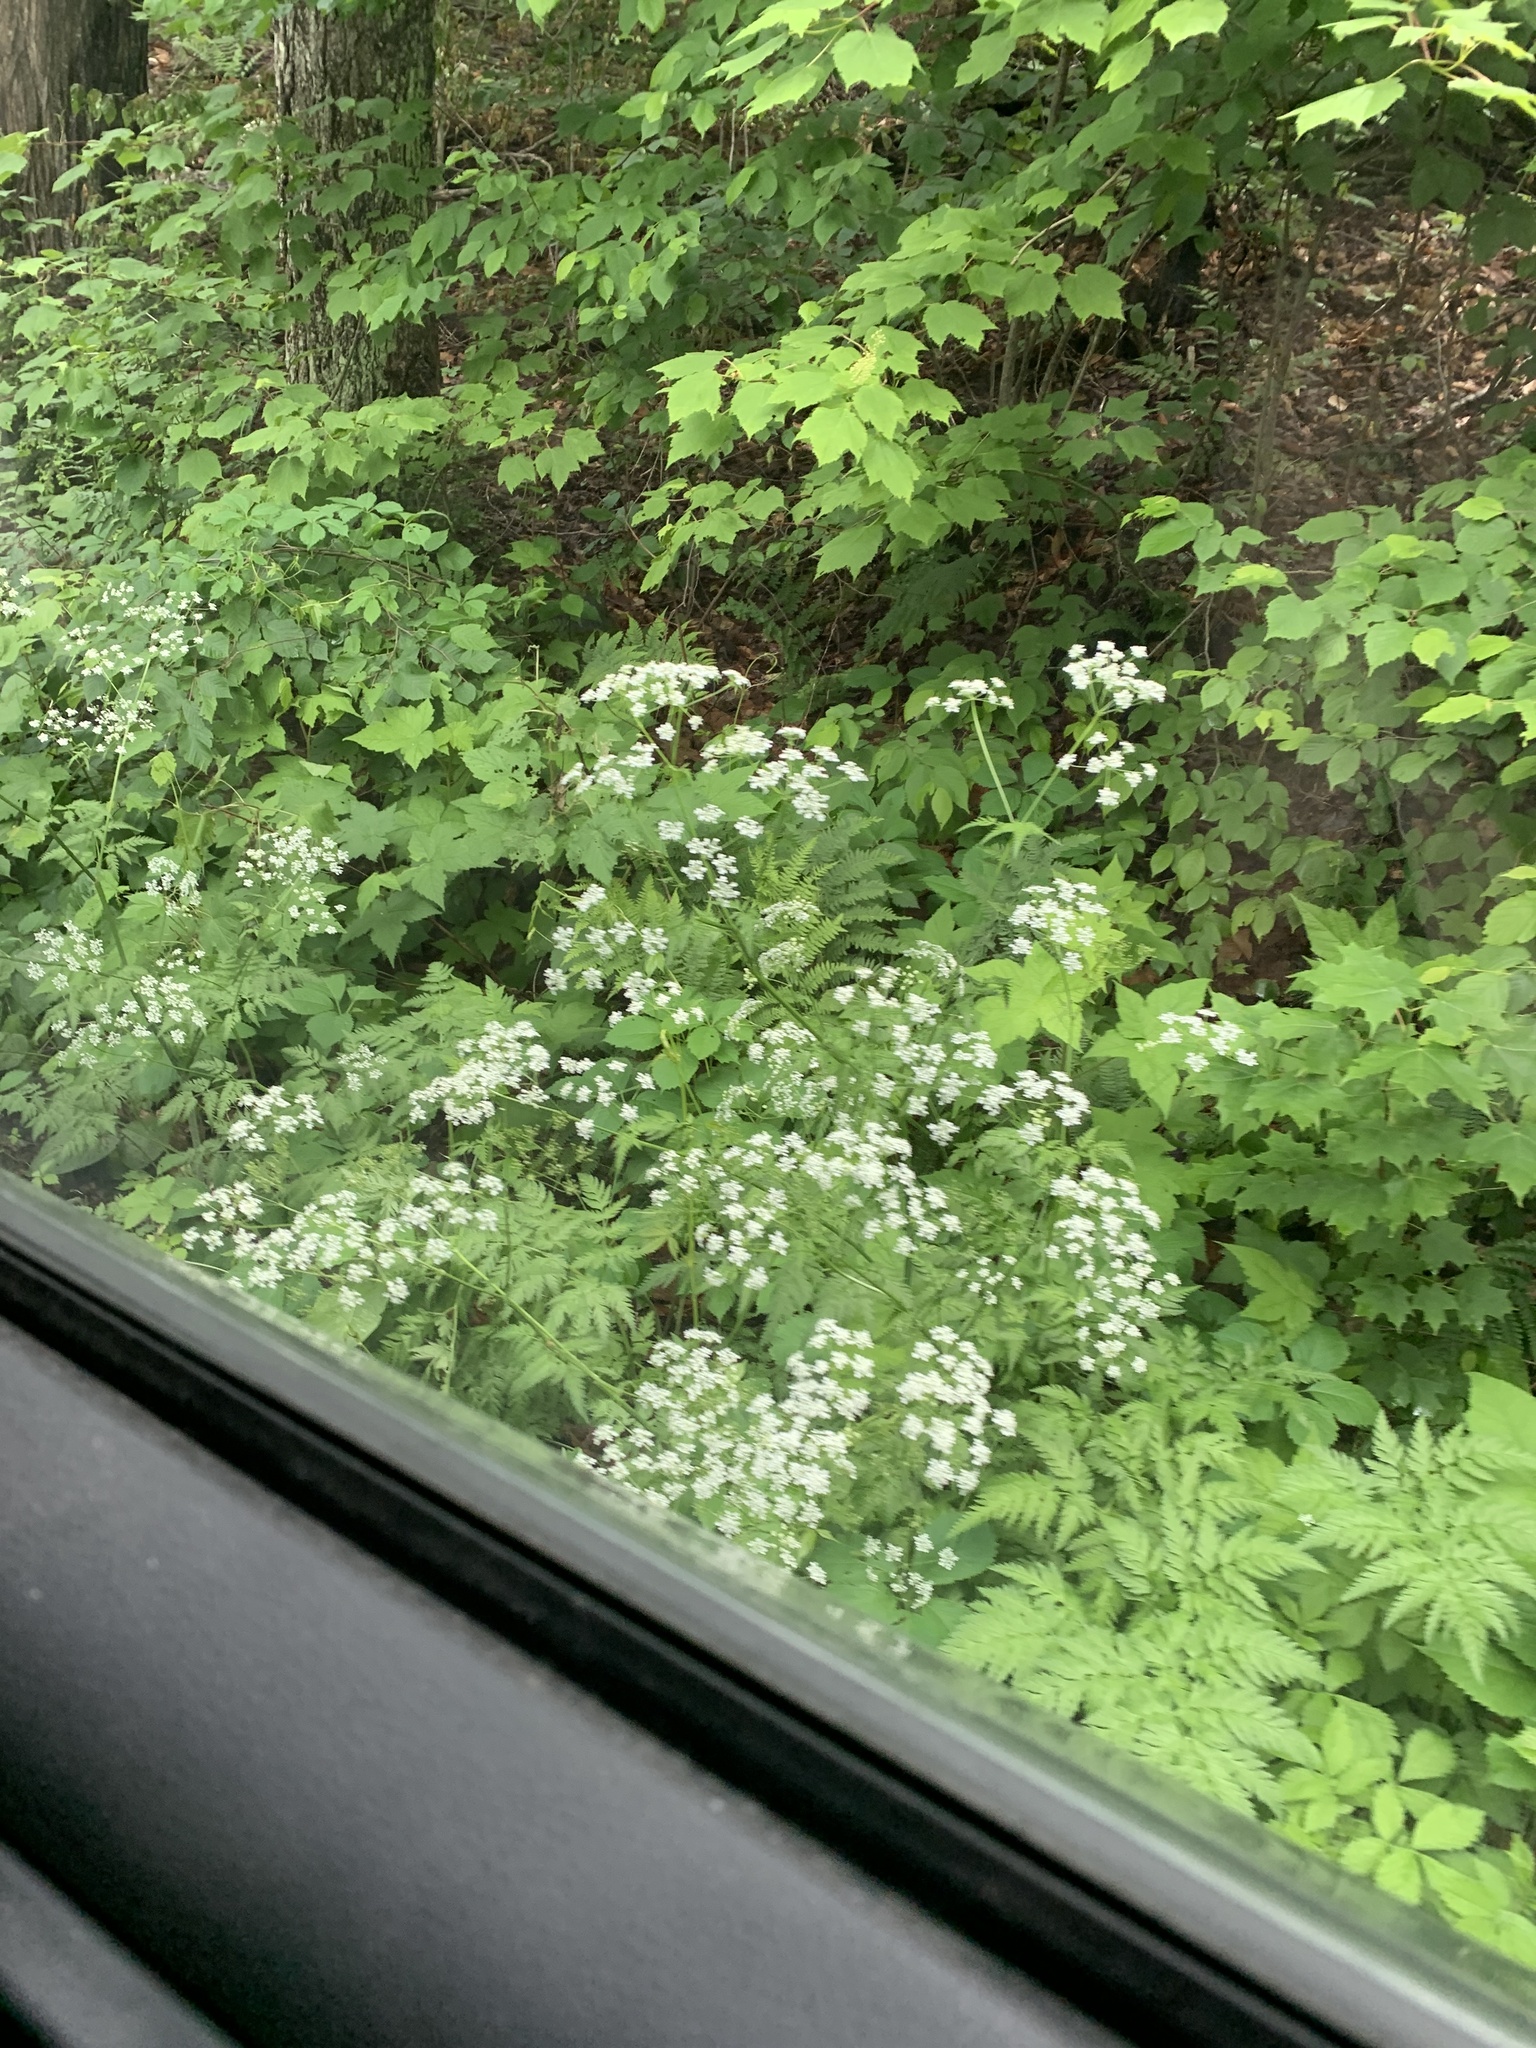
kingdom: Plantae
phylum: Tracheophyta
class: Magnoliopsida
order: Apiales
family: Apiaceae
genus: Anthriscus
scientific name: Anthriscus sylvestris
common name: Cow parsley
